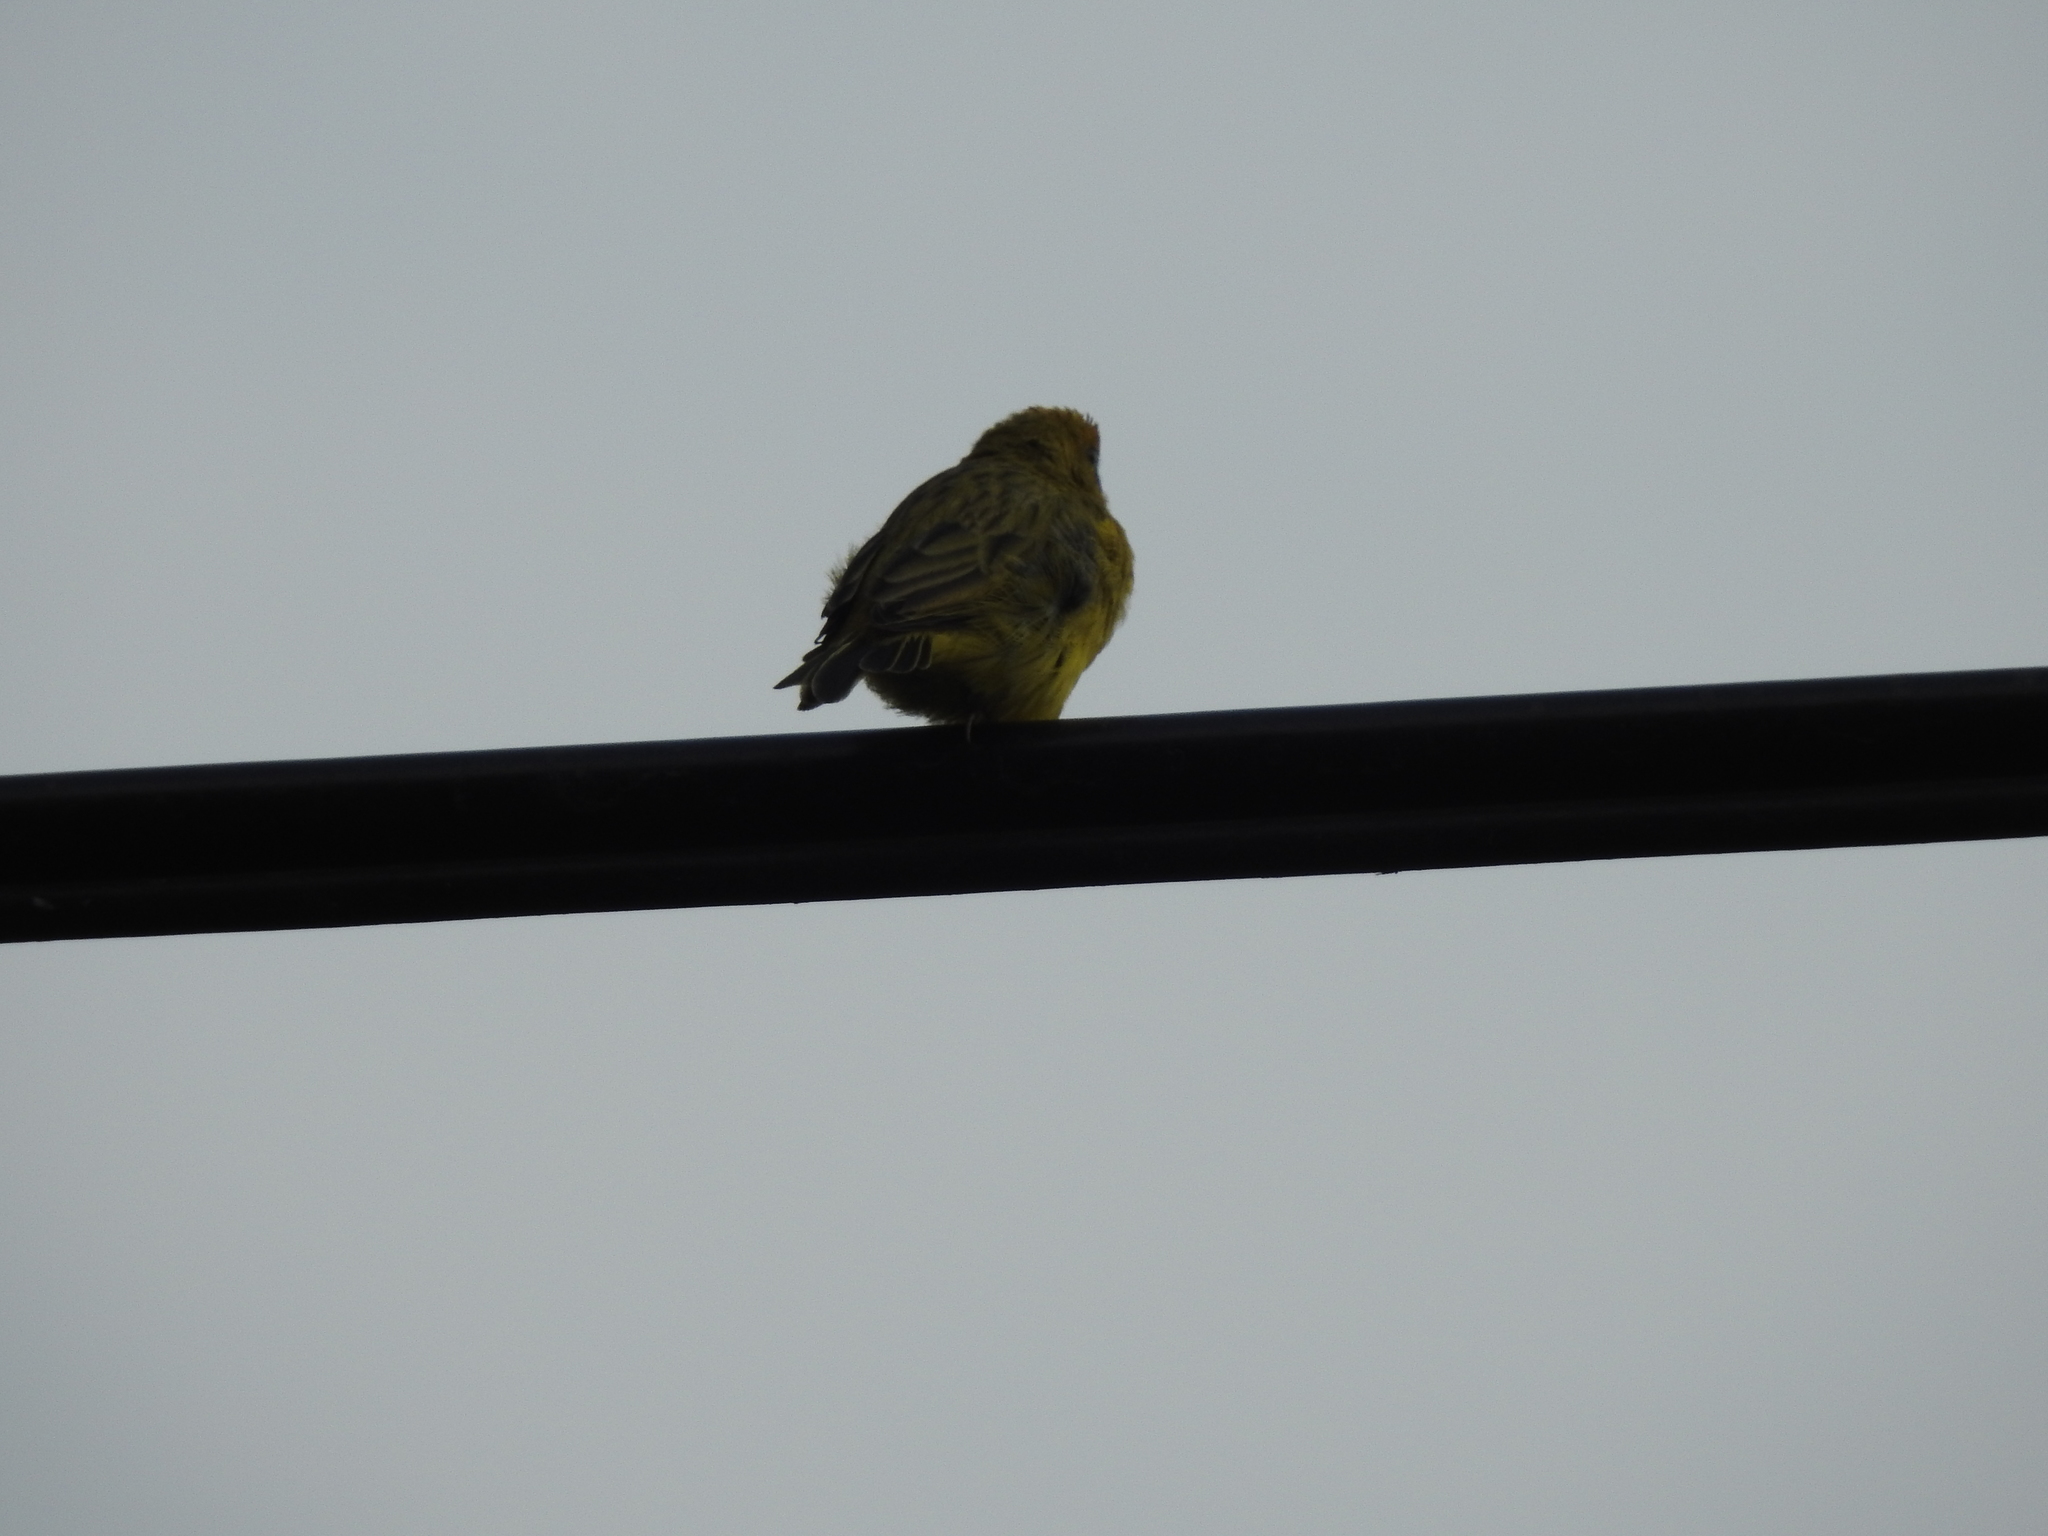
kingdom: Animalia
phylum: Chordata
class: Aves
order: Passeriformes
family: Thraupidae
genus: Sicalis
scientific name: Sicalis flaveola
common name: Saffron finch
